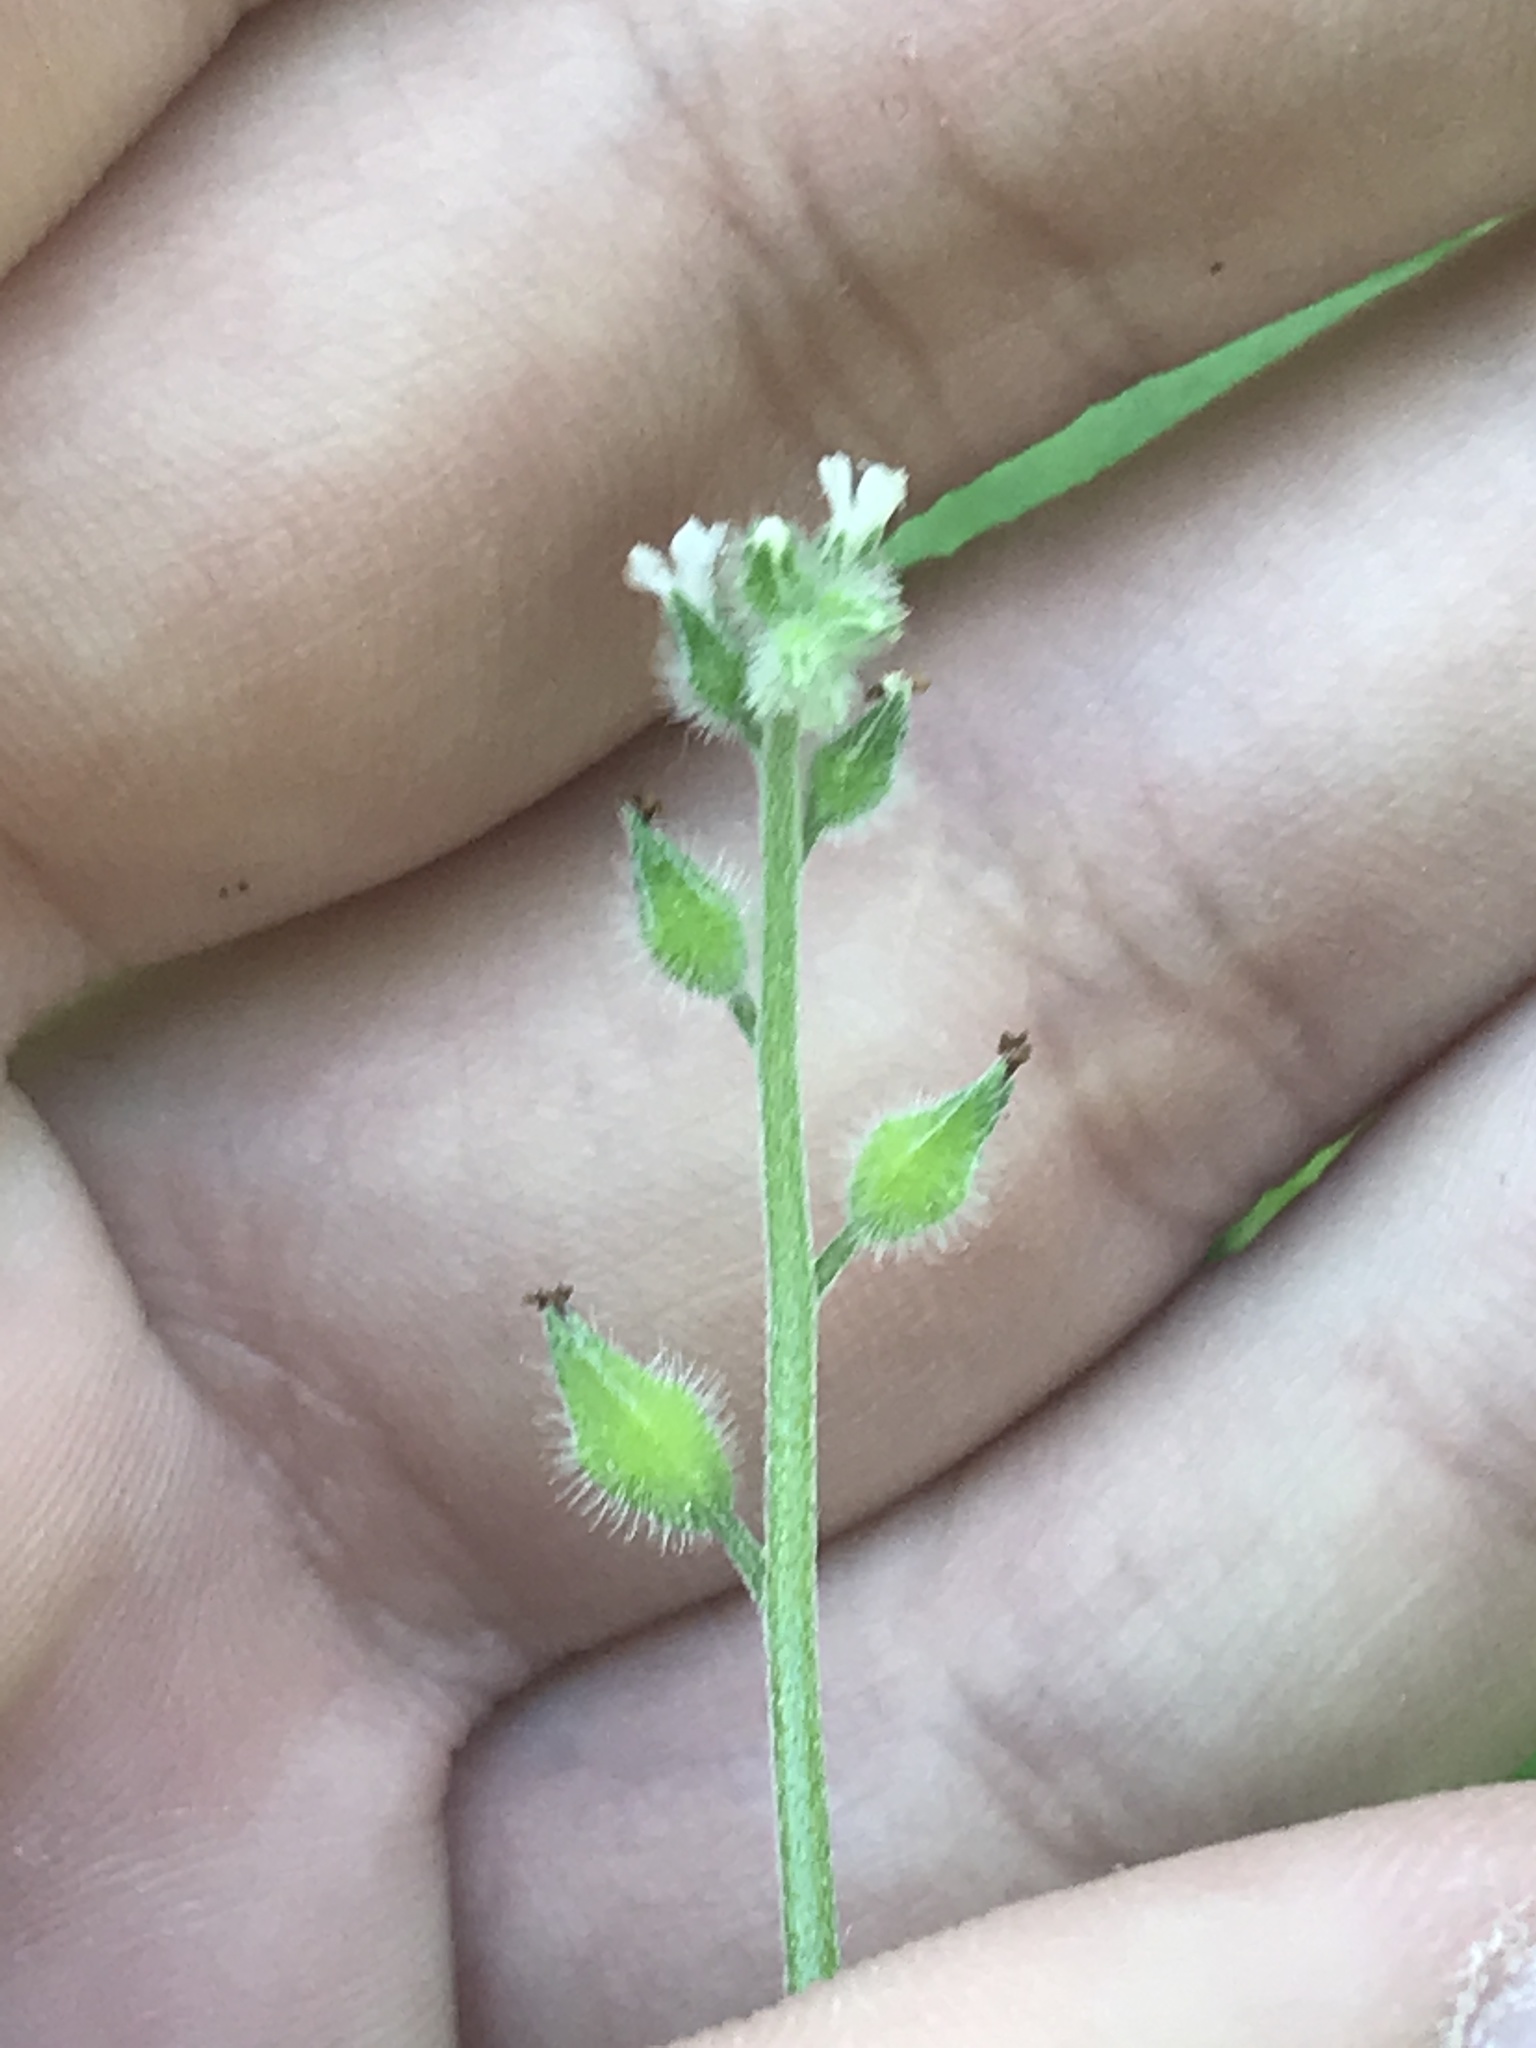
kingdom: Plantae
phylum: Tracheophyta
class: Magnoliopsida
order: Boraginales
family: Boraginaceae
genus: Myosotis
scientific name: Myosotis macrosperma
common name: Large-seed forget-me-not
